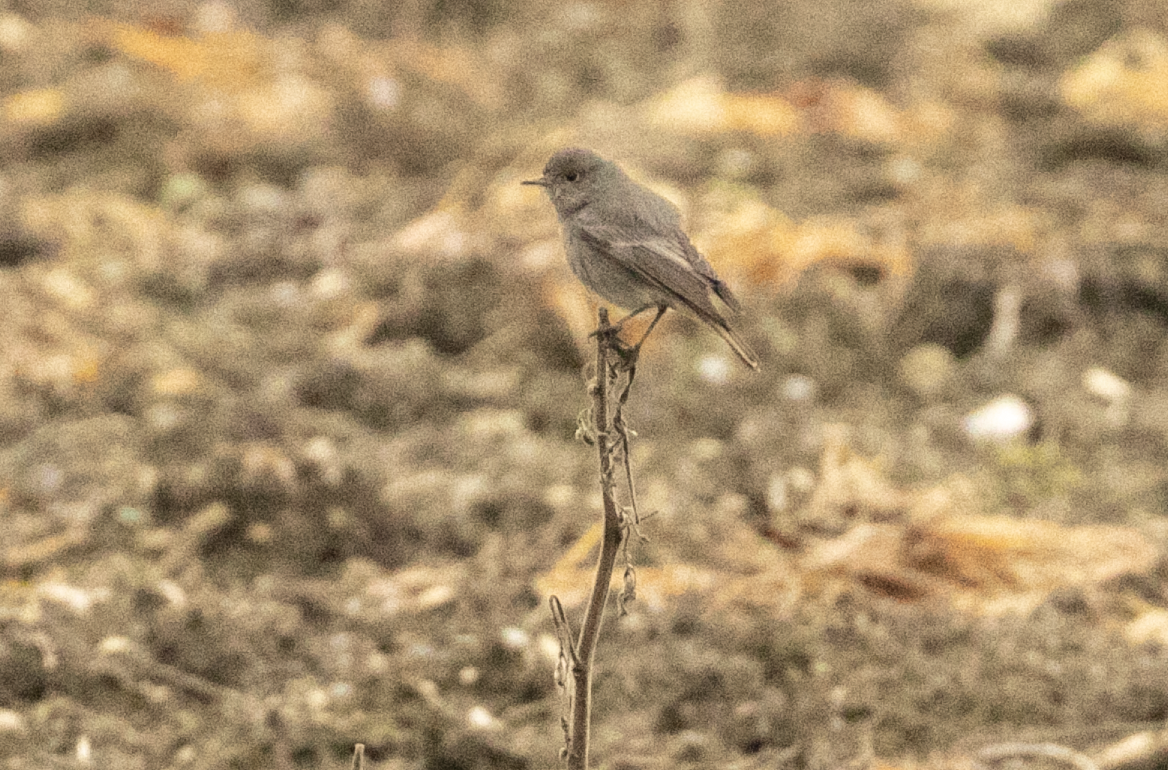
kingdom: Animalia
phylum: Chordata
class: Aves
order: Passeriformes
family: Muscicapidae
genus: Phoenicurus
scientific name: Phoenicurus ochruros
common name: Black redstart
